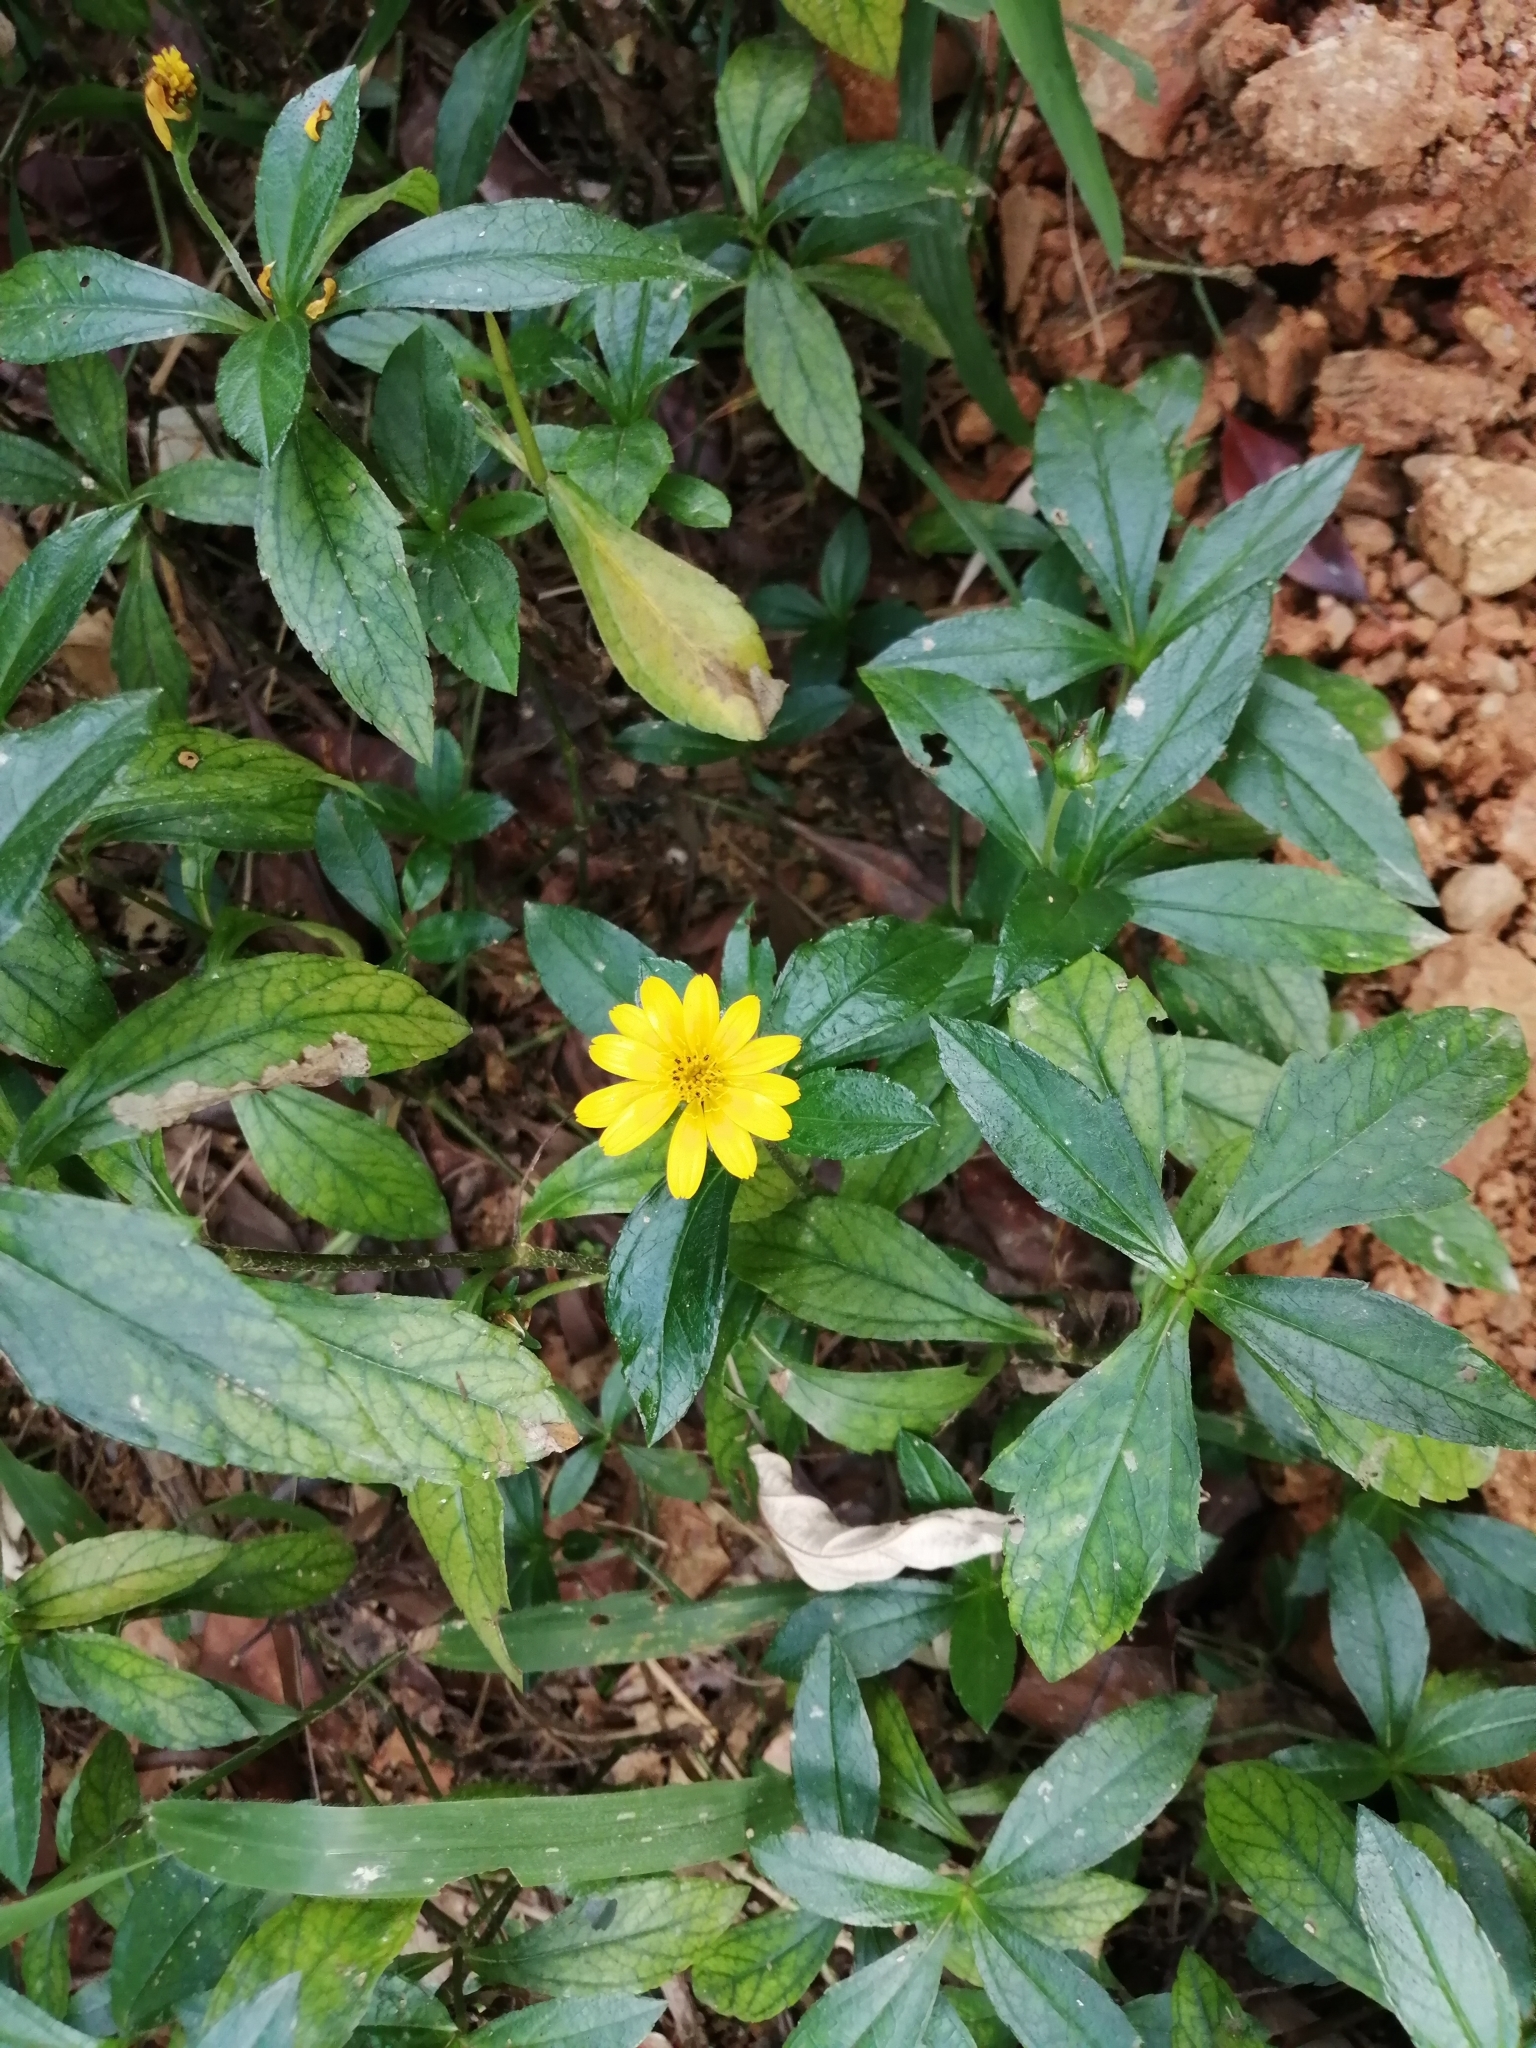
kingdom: Plantae
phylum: Tracheophyta
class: Magnoliopsida
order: Asterales
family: Asteraceae
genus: Sphagneticola
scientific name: Sphagneticola trilobata
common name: Bay biscayne creeping-oxeye
